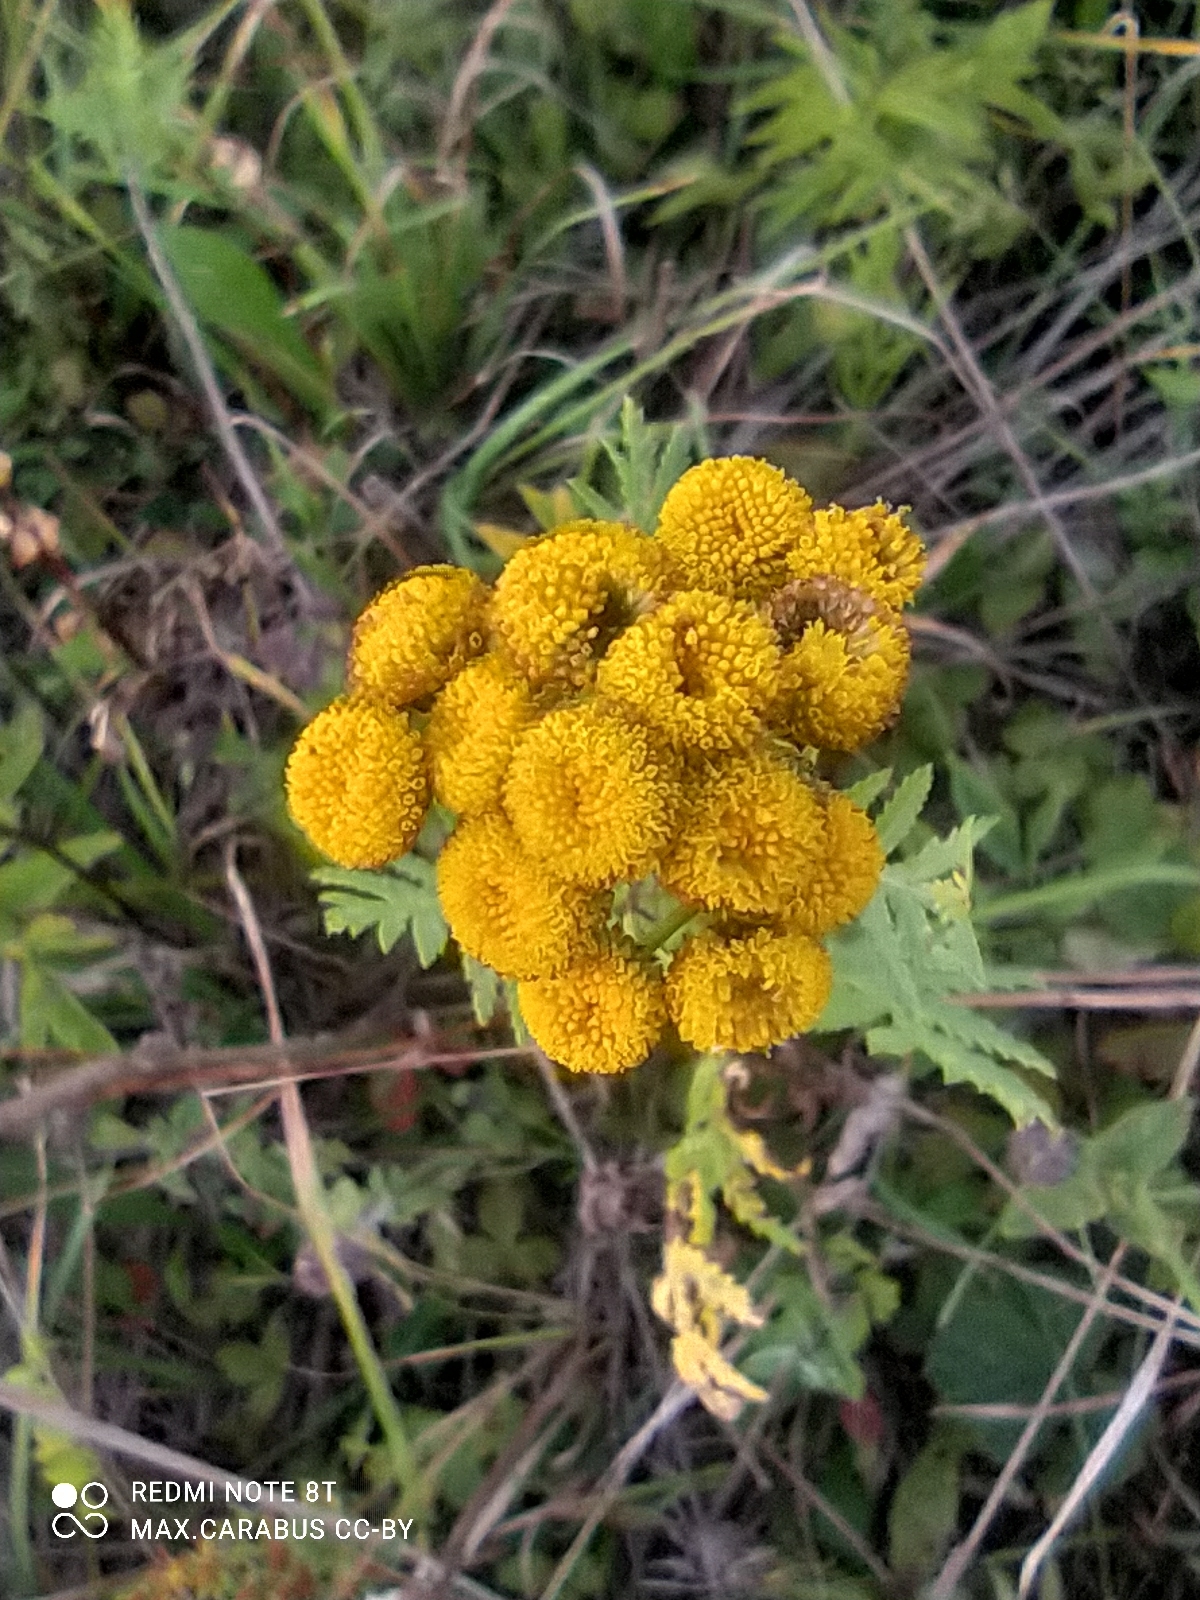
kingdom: Plantae
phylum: Tracheophyta
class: Magnoliopsida
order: Asterales
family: Asteraceae
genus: Tanacetum
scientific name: Tanacetum vulgare
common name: Common tansy
